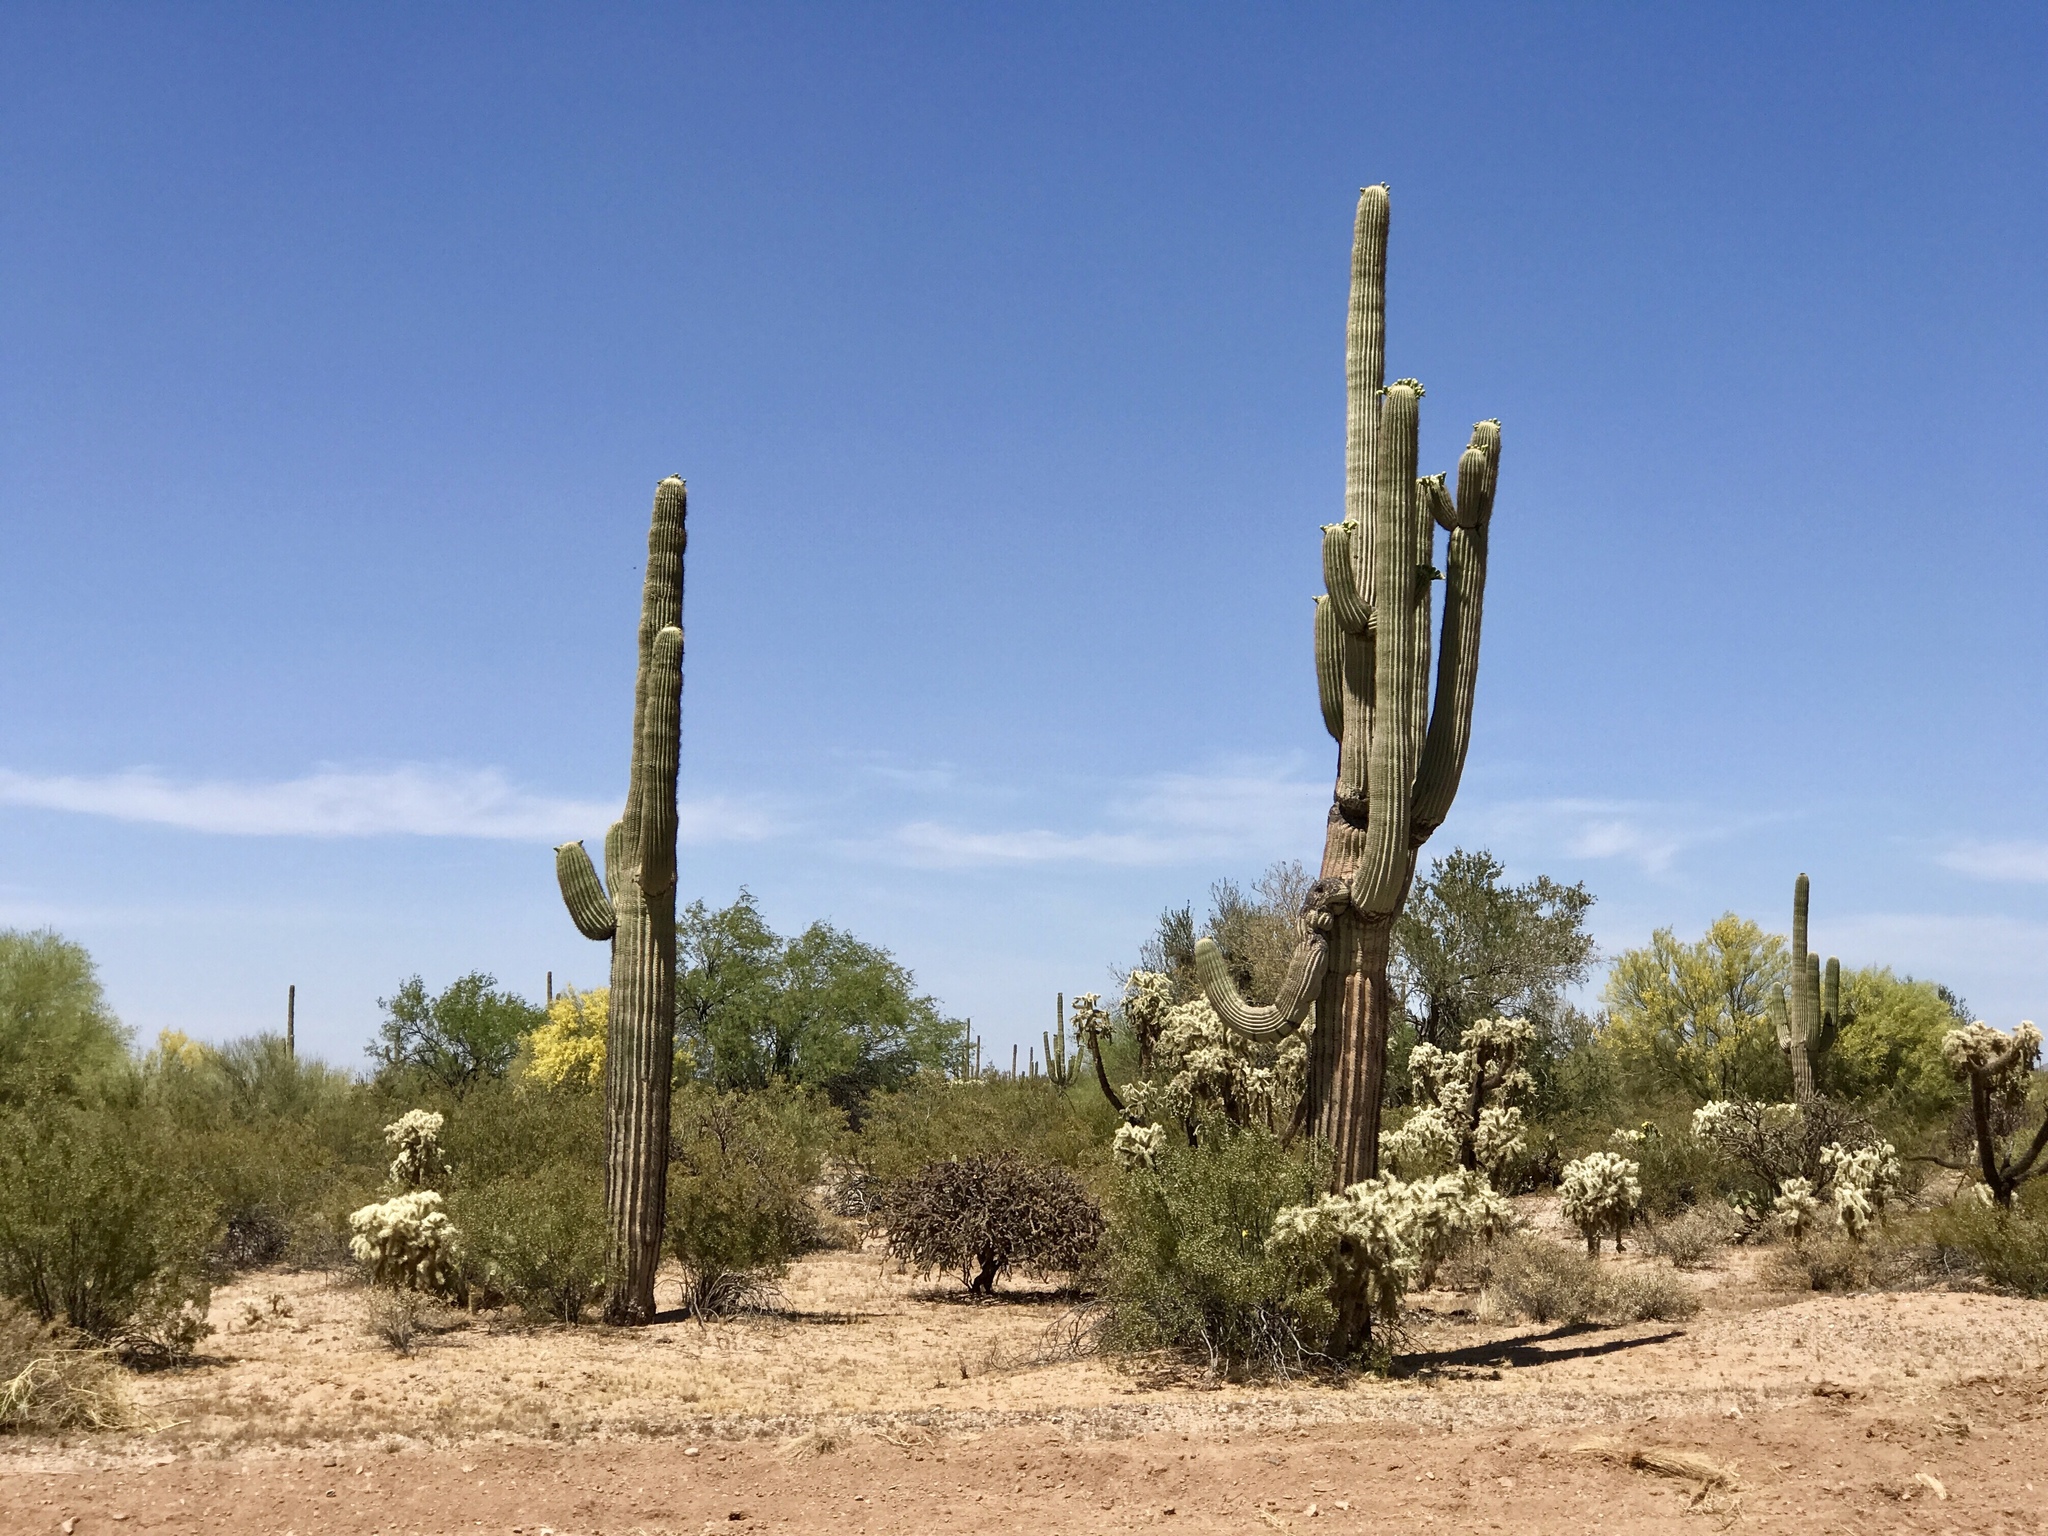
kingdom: Plantae
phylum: Tracheophyta
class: Magnoliopsida
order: Caryophyllales
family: Cactaceae
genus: Carnegiea
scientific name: Carnegiea gigantea
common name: Saguaro
